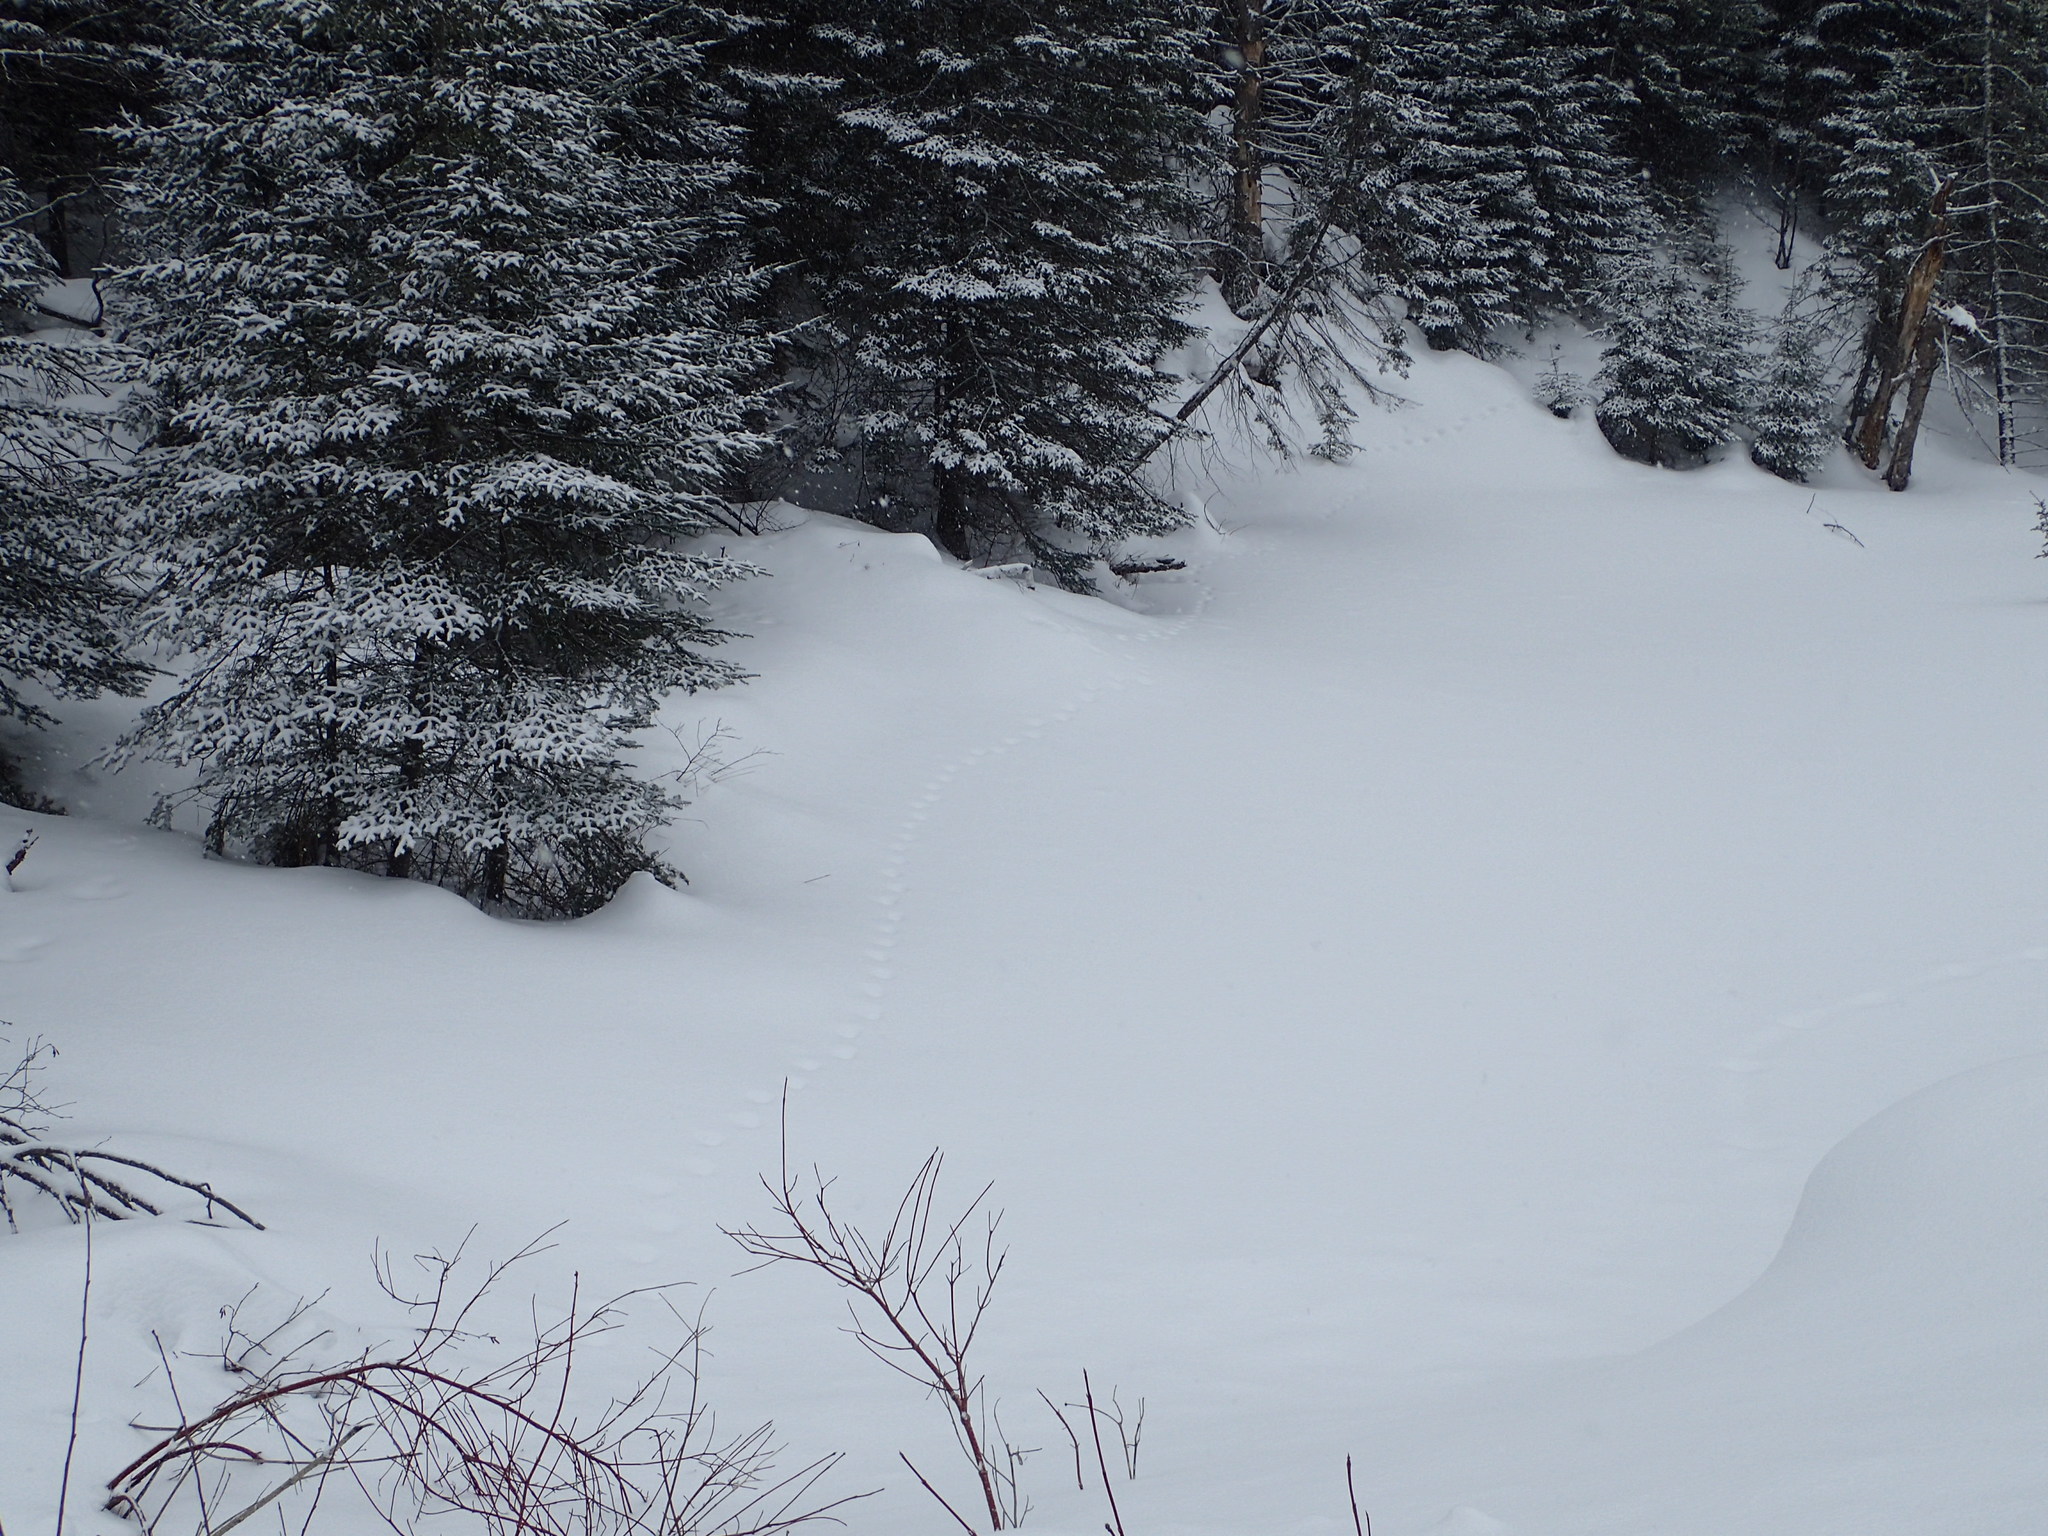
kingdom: Animalia
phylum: Chordata
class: Mammalia
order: Carnivora
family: Felidae
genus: Lynx
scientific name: Lynx canadensis
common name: Canadian lynx
